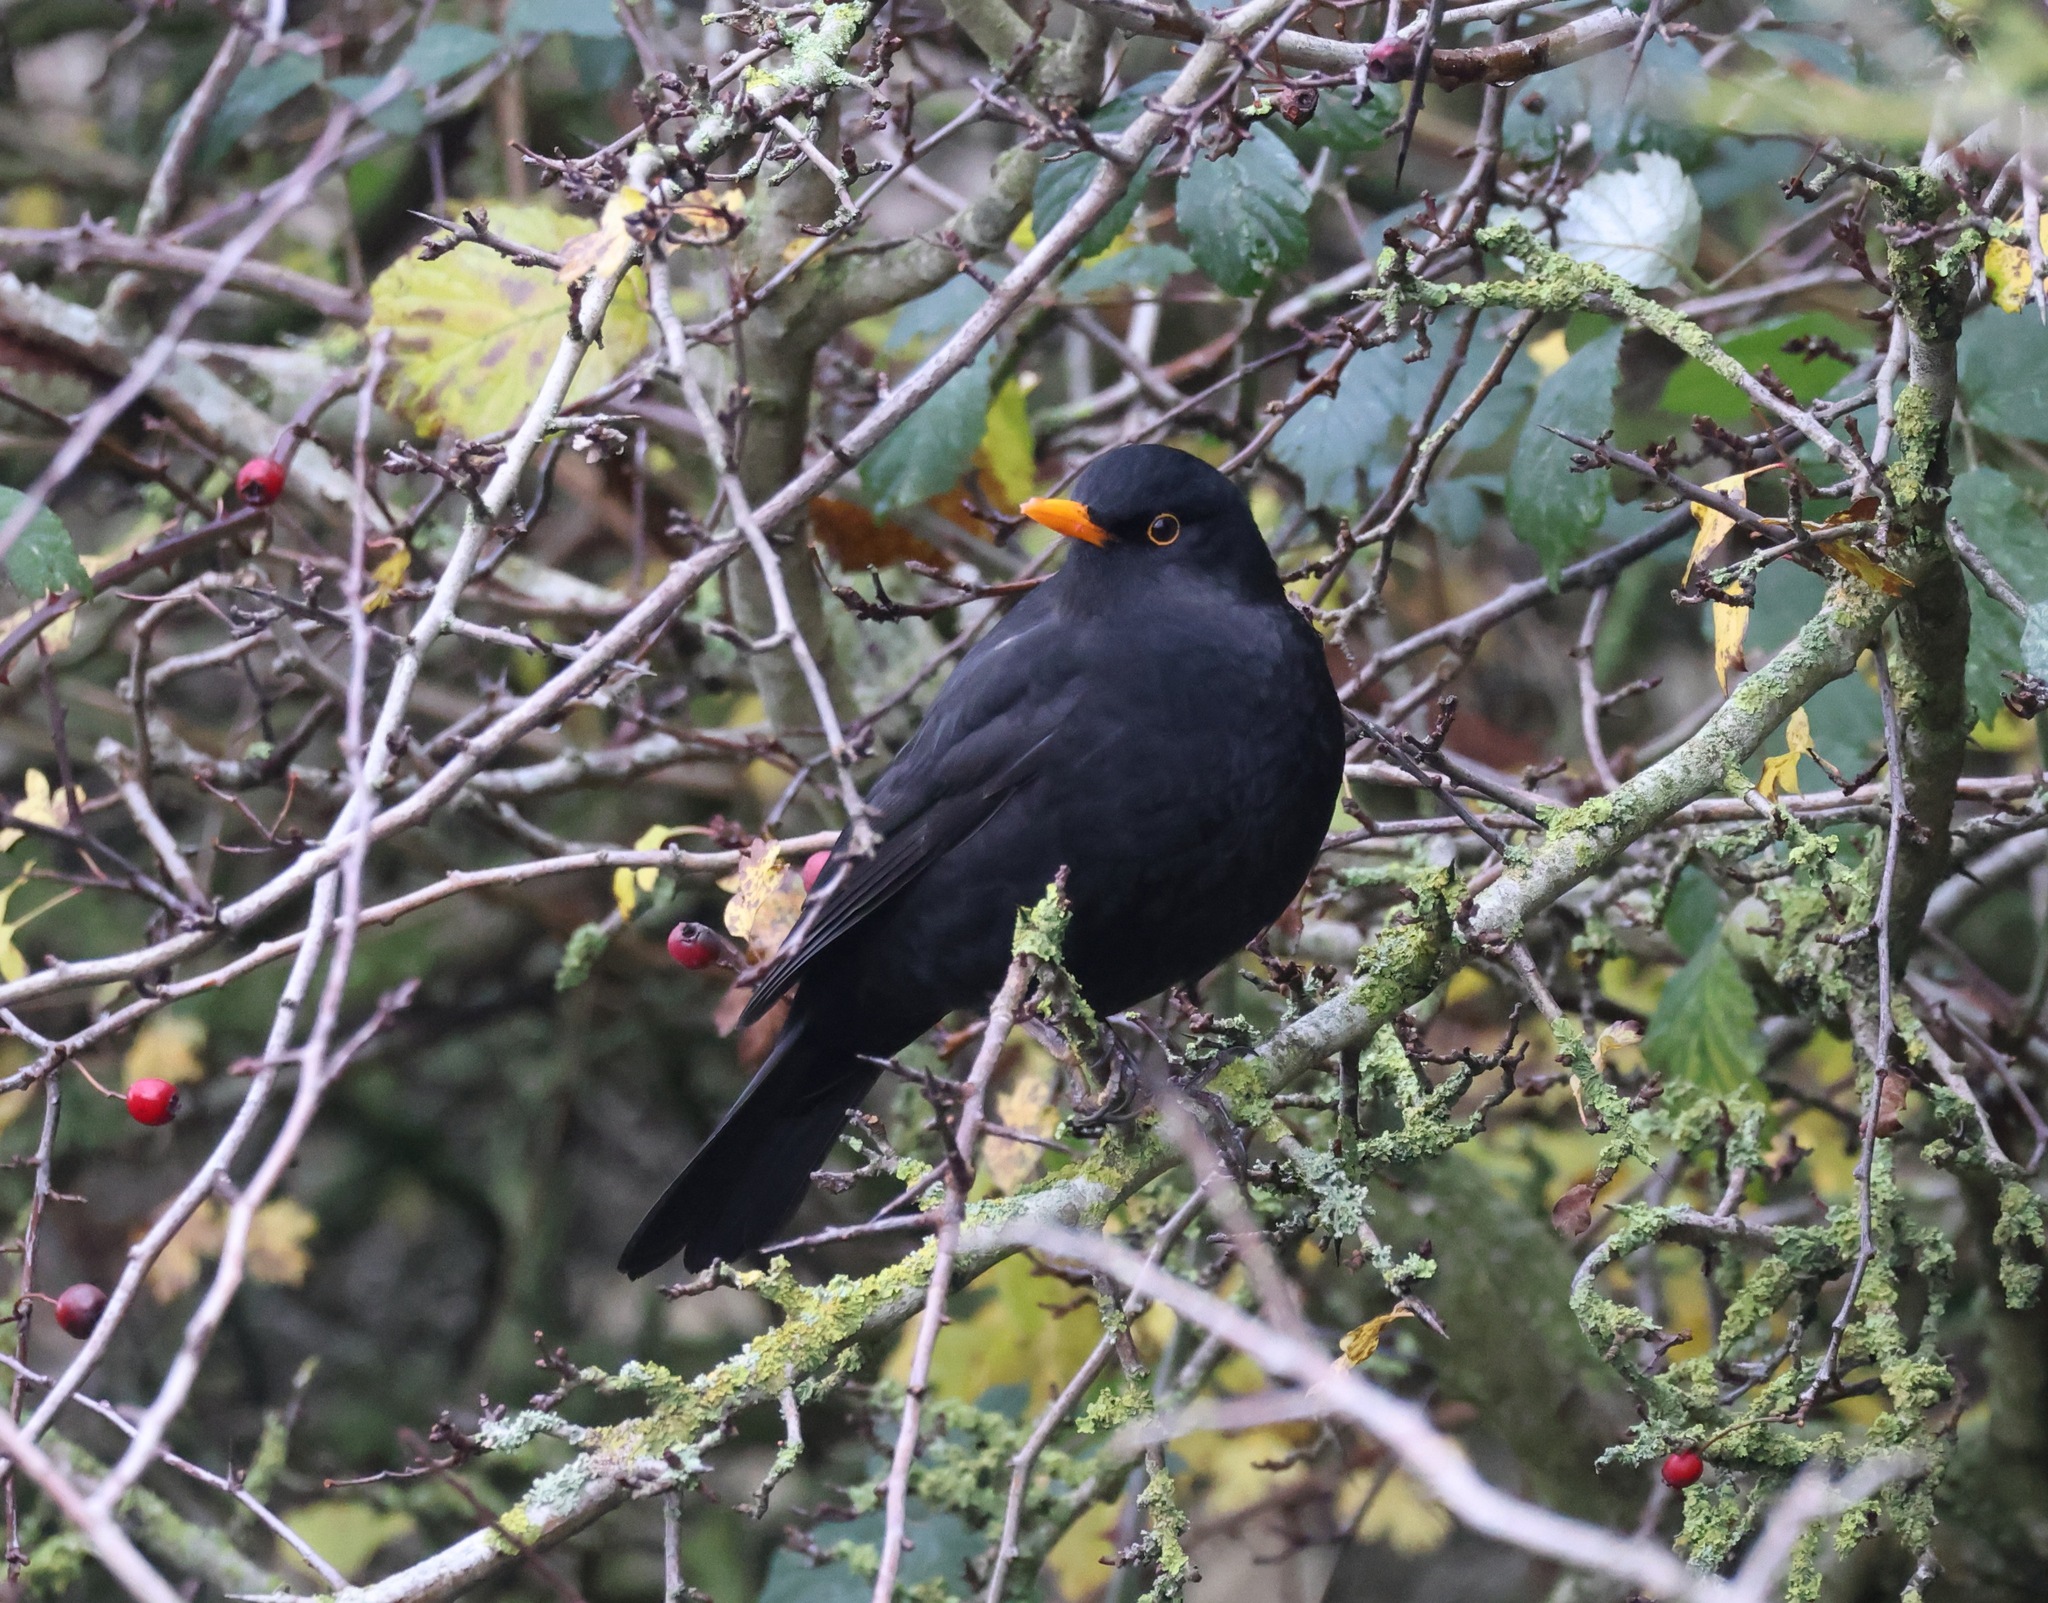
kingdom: Animalia
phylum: Chordata
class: Aves
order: Passeriformes
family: Turdidae
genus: Turdus
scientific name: Turdus merula
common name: Common blackbird
